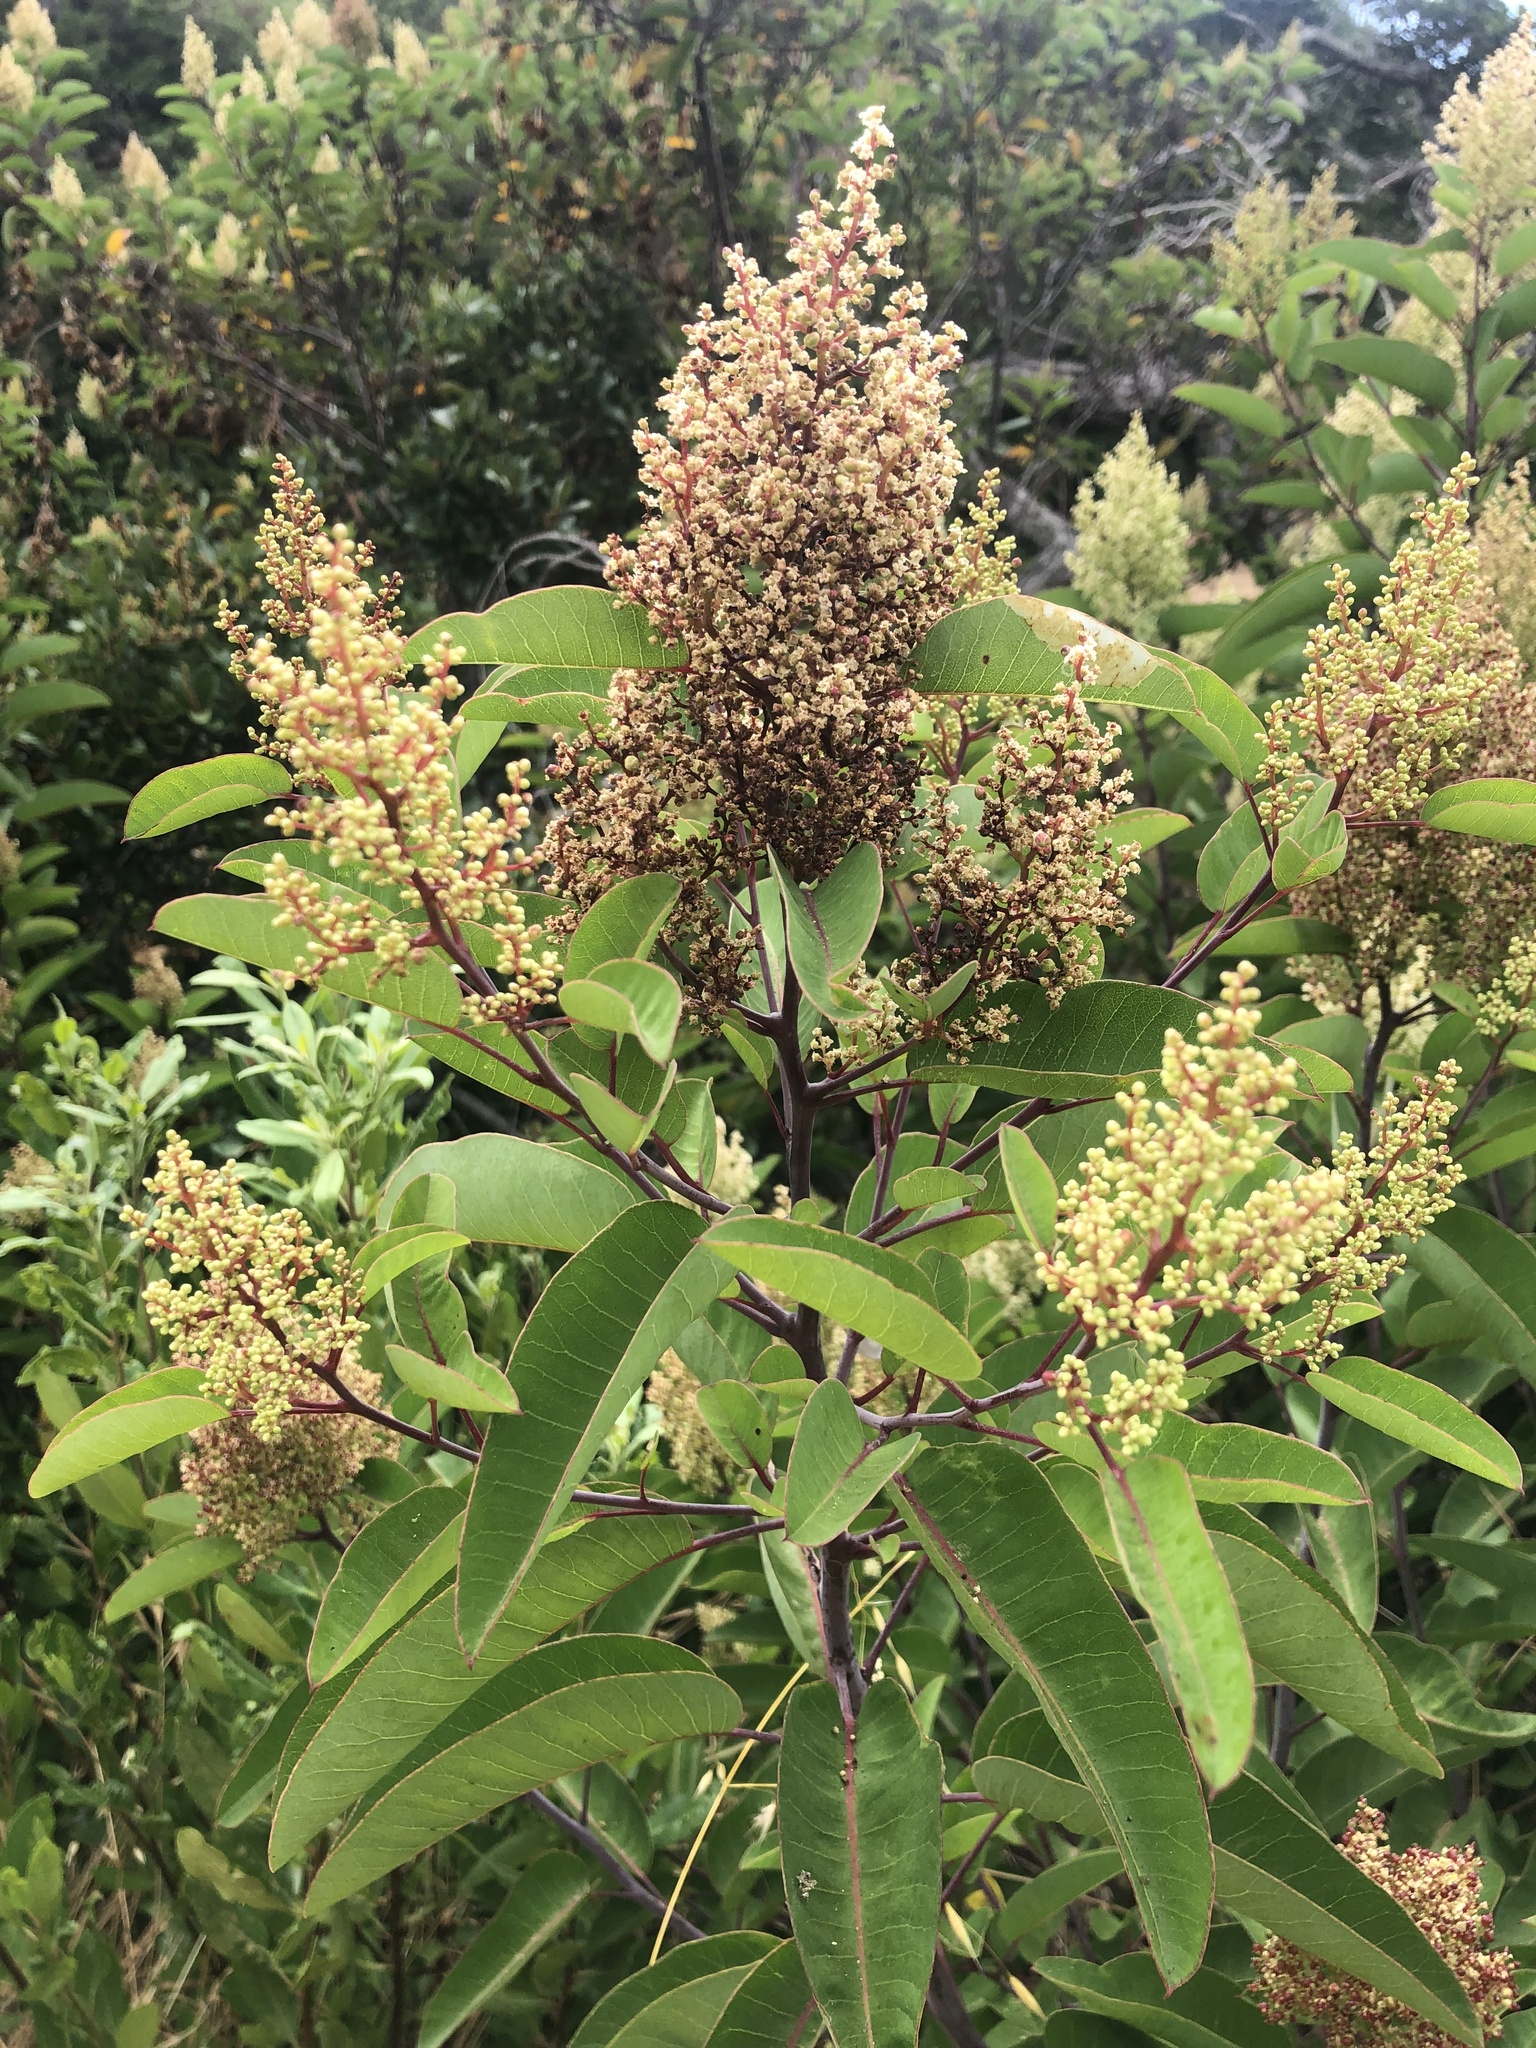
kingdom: Plantae
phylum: Tracheophyta
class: Magnoliopsida
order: Sapindales
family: Anacardiaceae
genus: Malosma
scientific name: Malosma laurina
